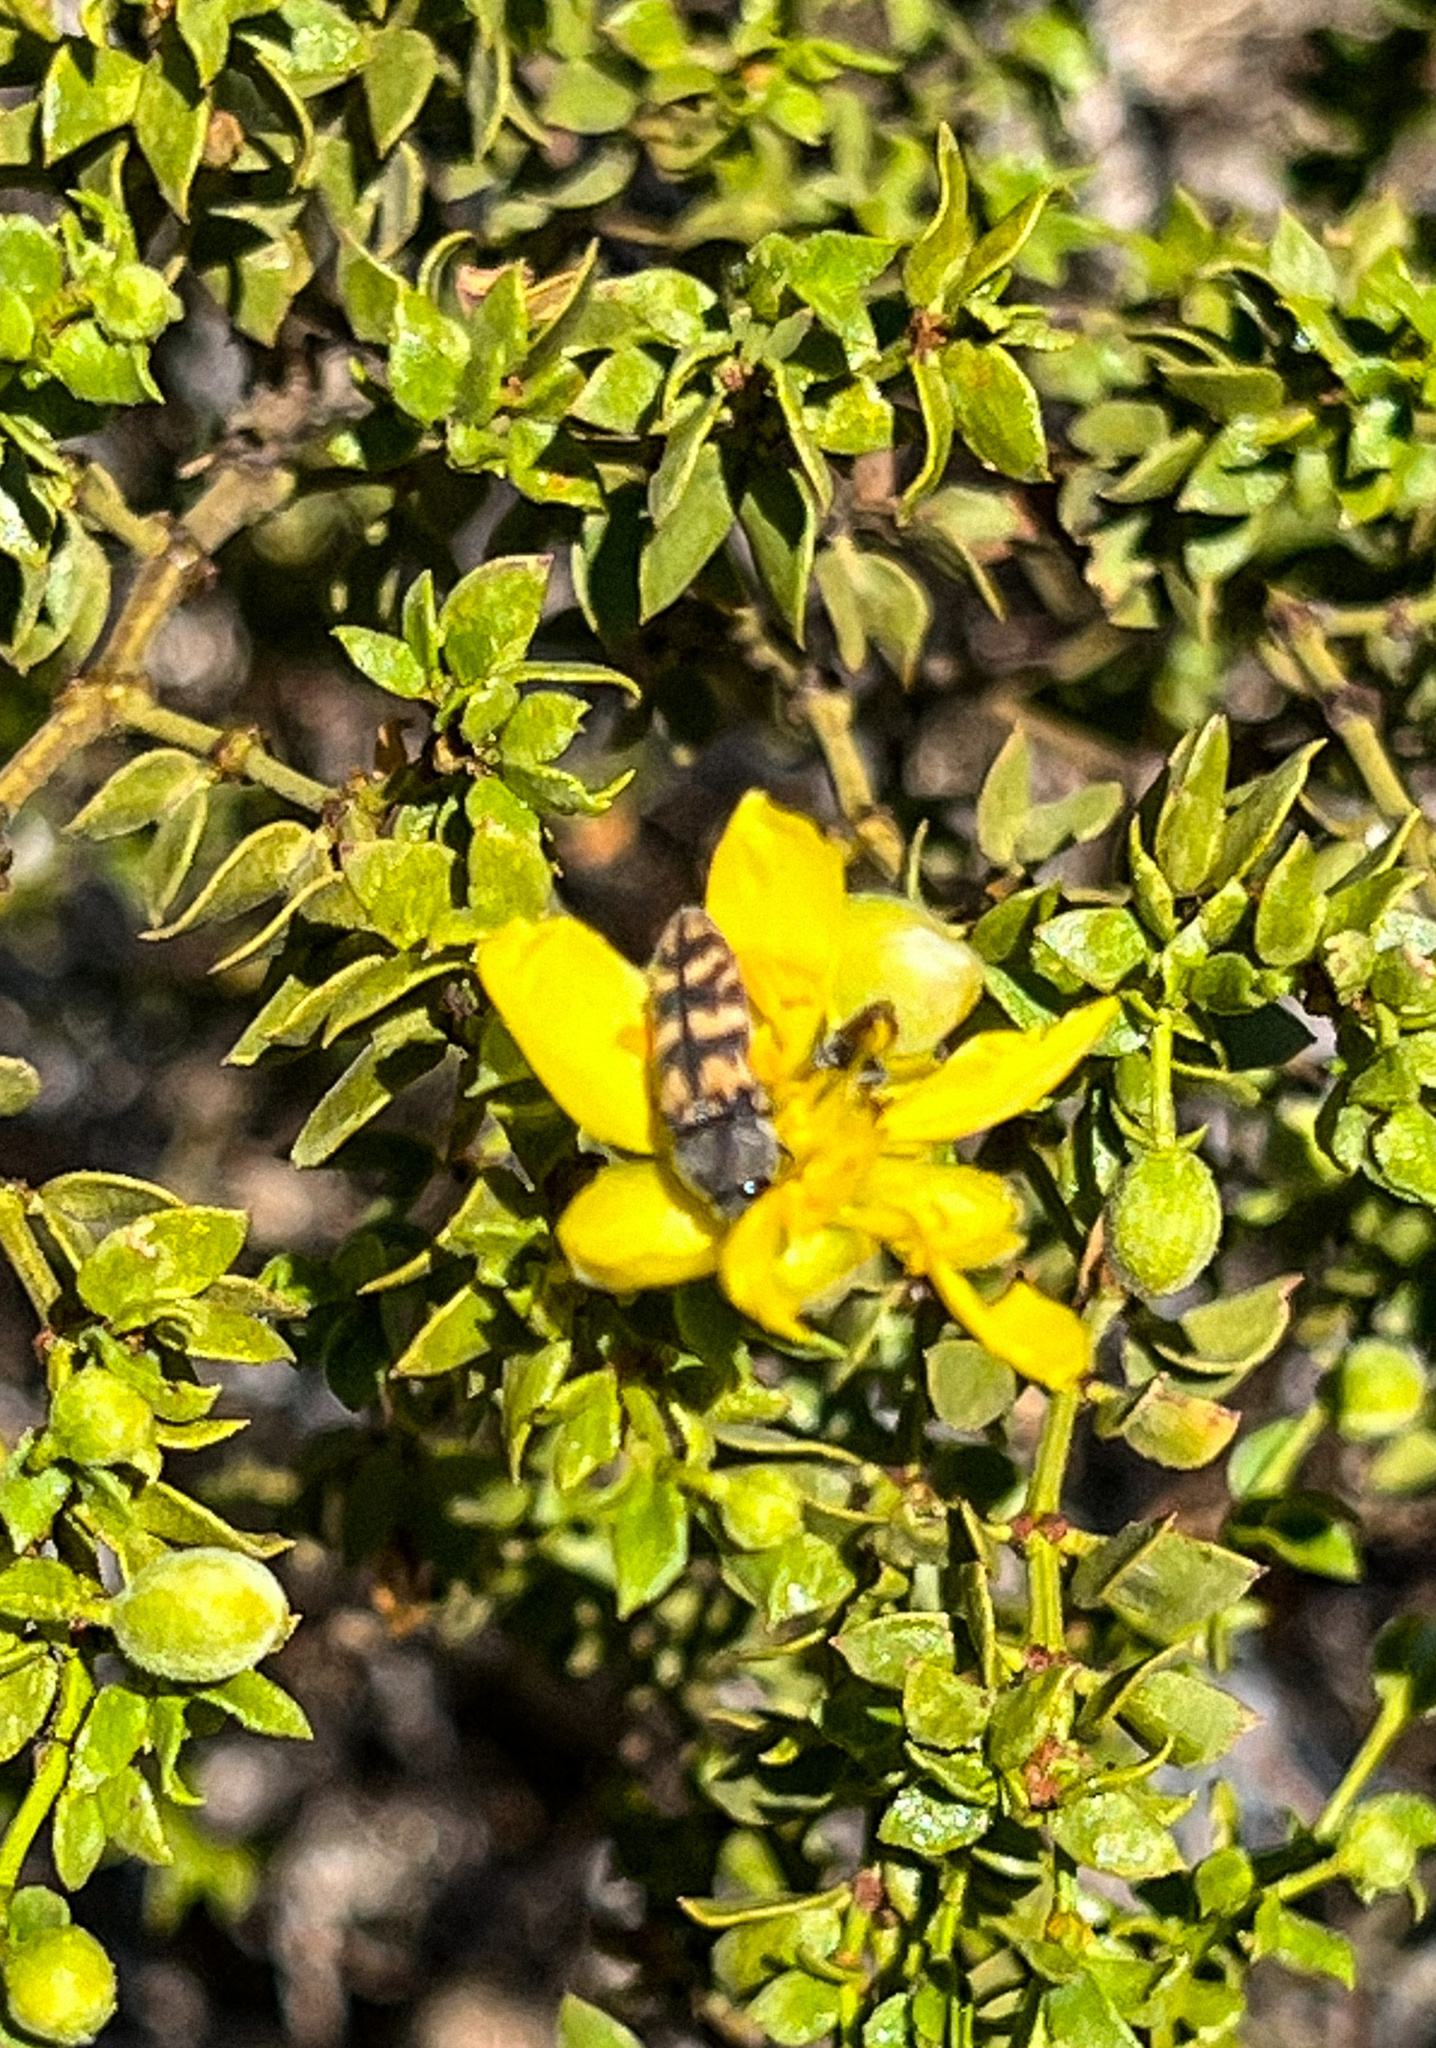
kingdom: Animalia
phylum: Arthropoda
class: Insecta
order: Coleoptera
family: Buprestidae
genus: Acmaeodera
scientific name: Acmaeodera cribricollis
